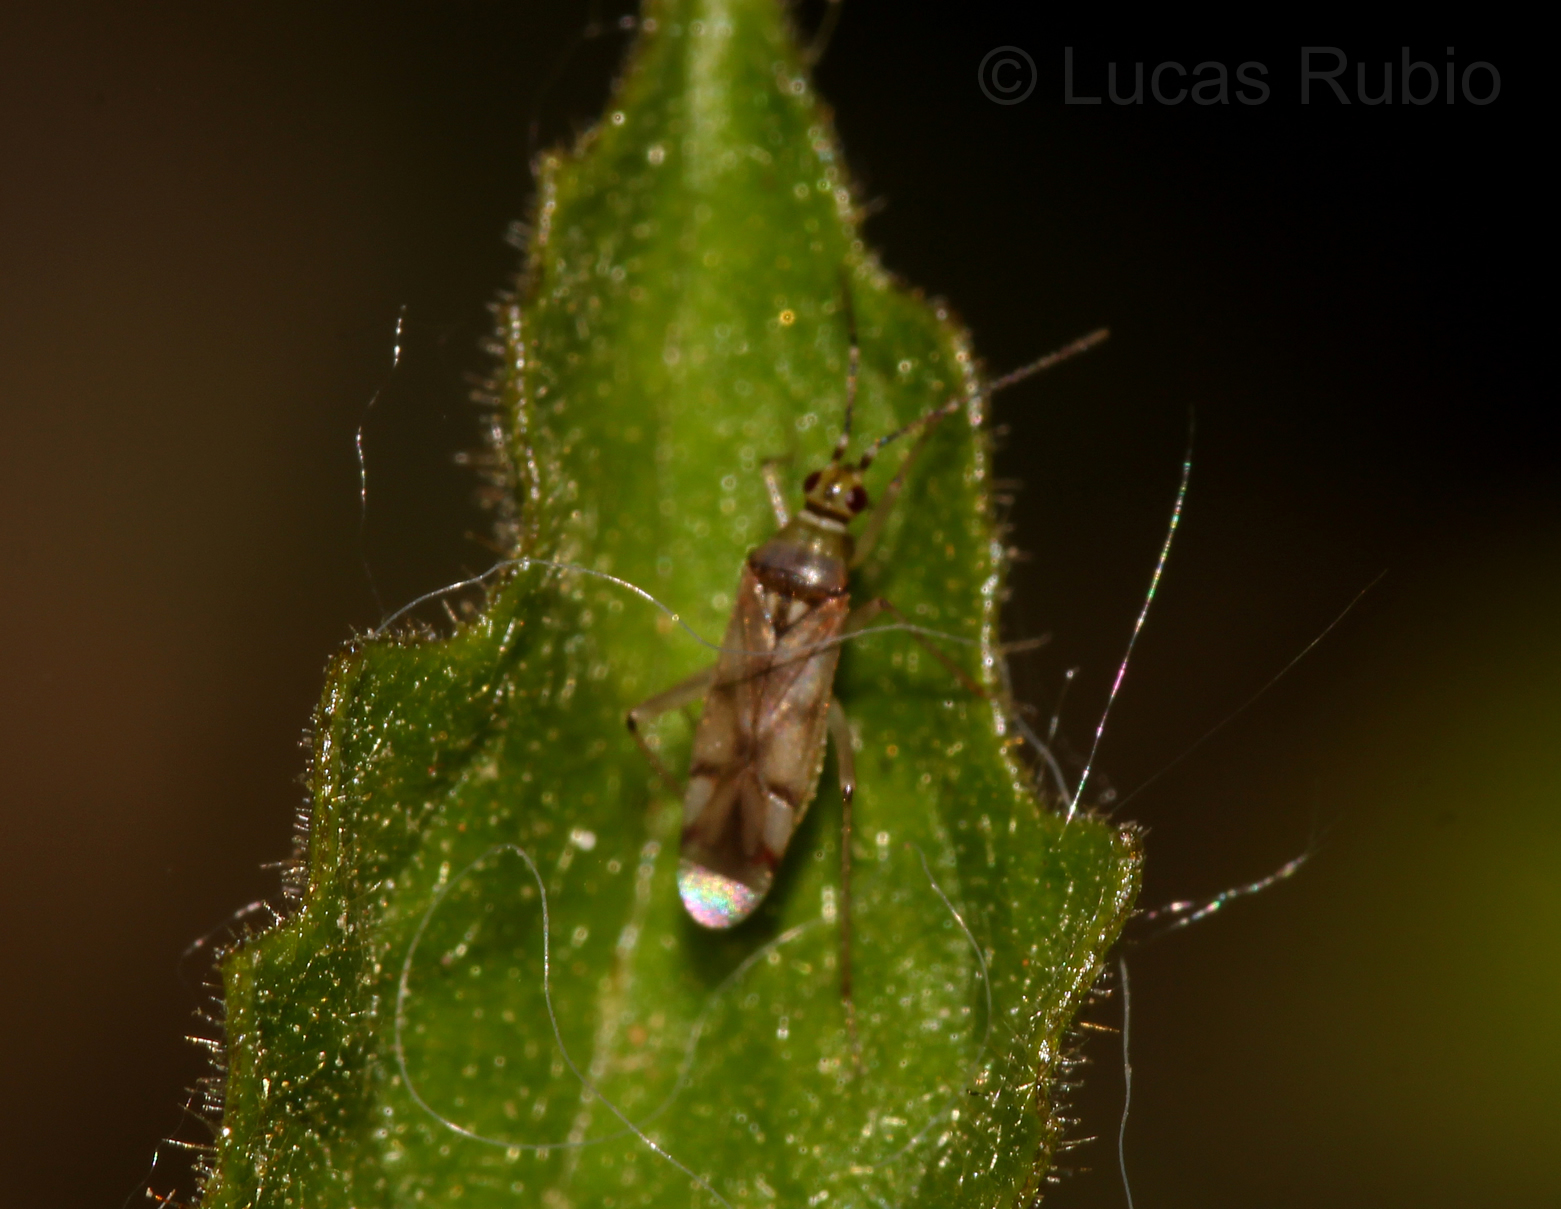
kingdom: Animalia
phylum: Arthropoda
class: Insecta
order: Hemiptera
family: Miridae
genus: Campyloneuropsis
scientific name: Campyloneuropsis cincticornis
